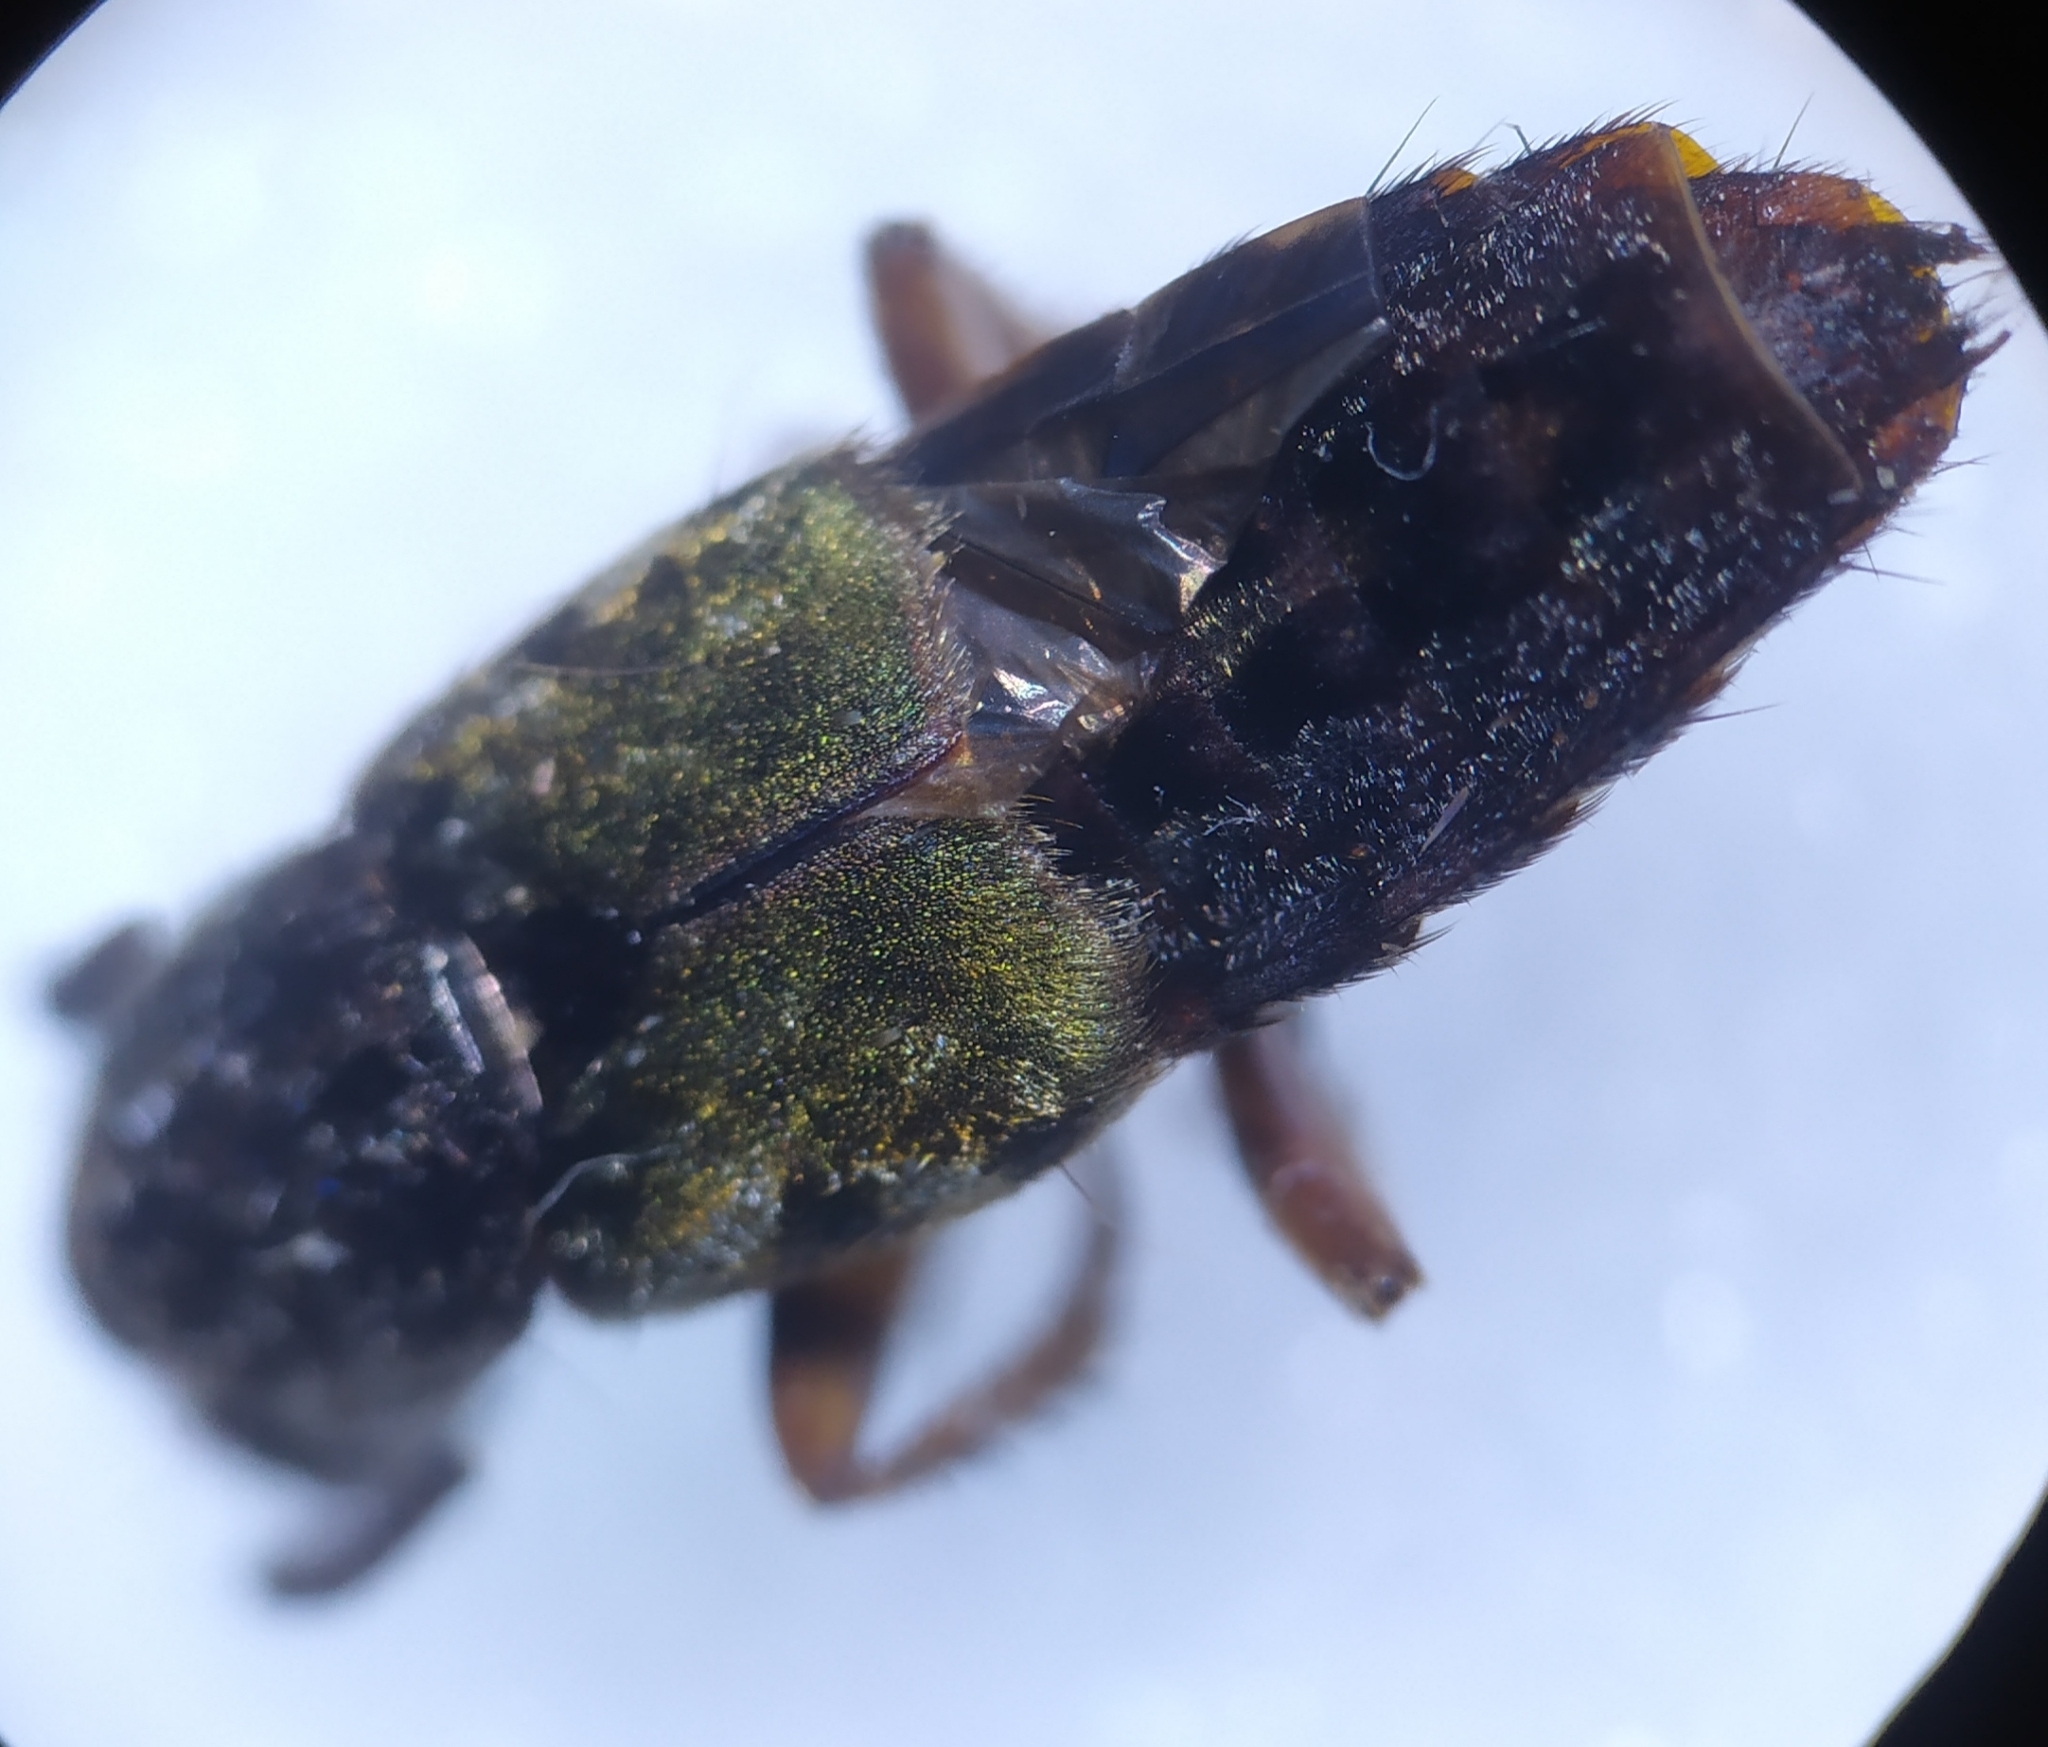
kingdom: Animalia
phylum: Arthropoda
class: Insecta
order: Coleoptera
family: Staphylinidae
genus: Abemus
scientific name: Abemus chloropterus
